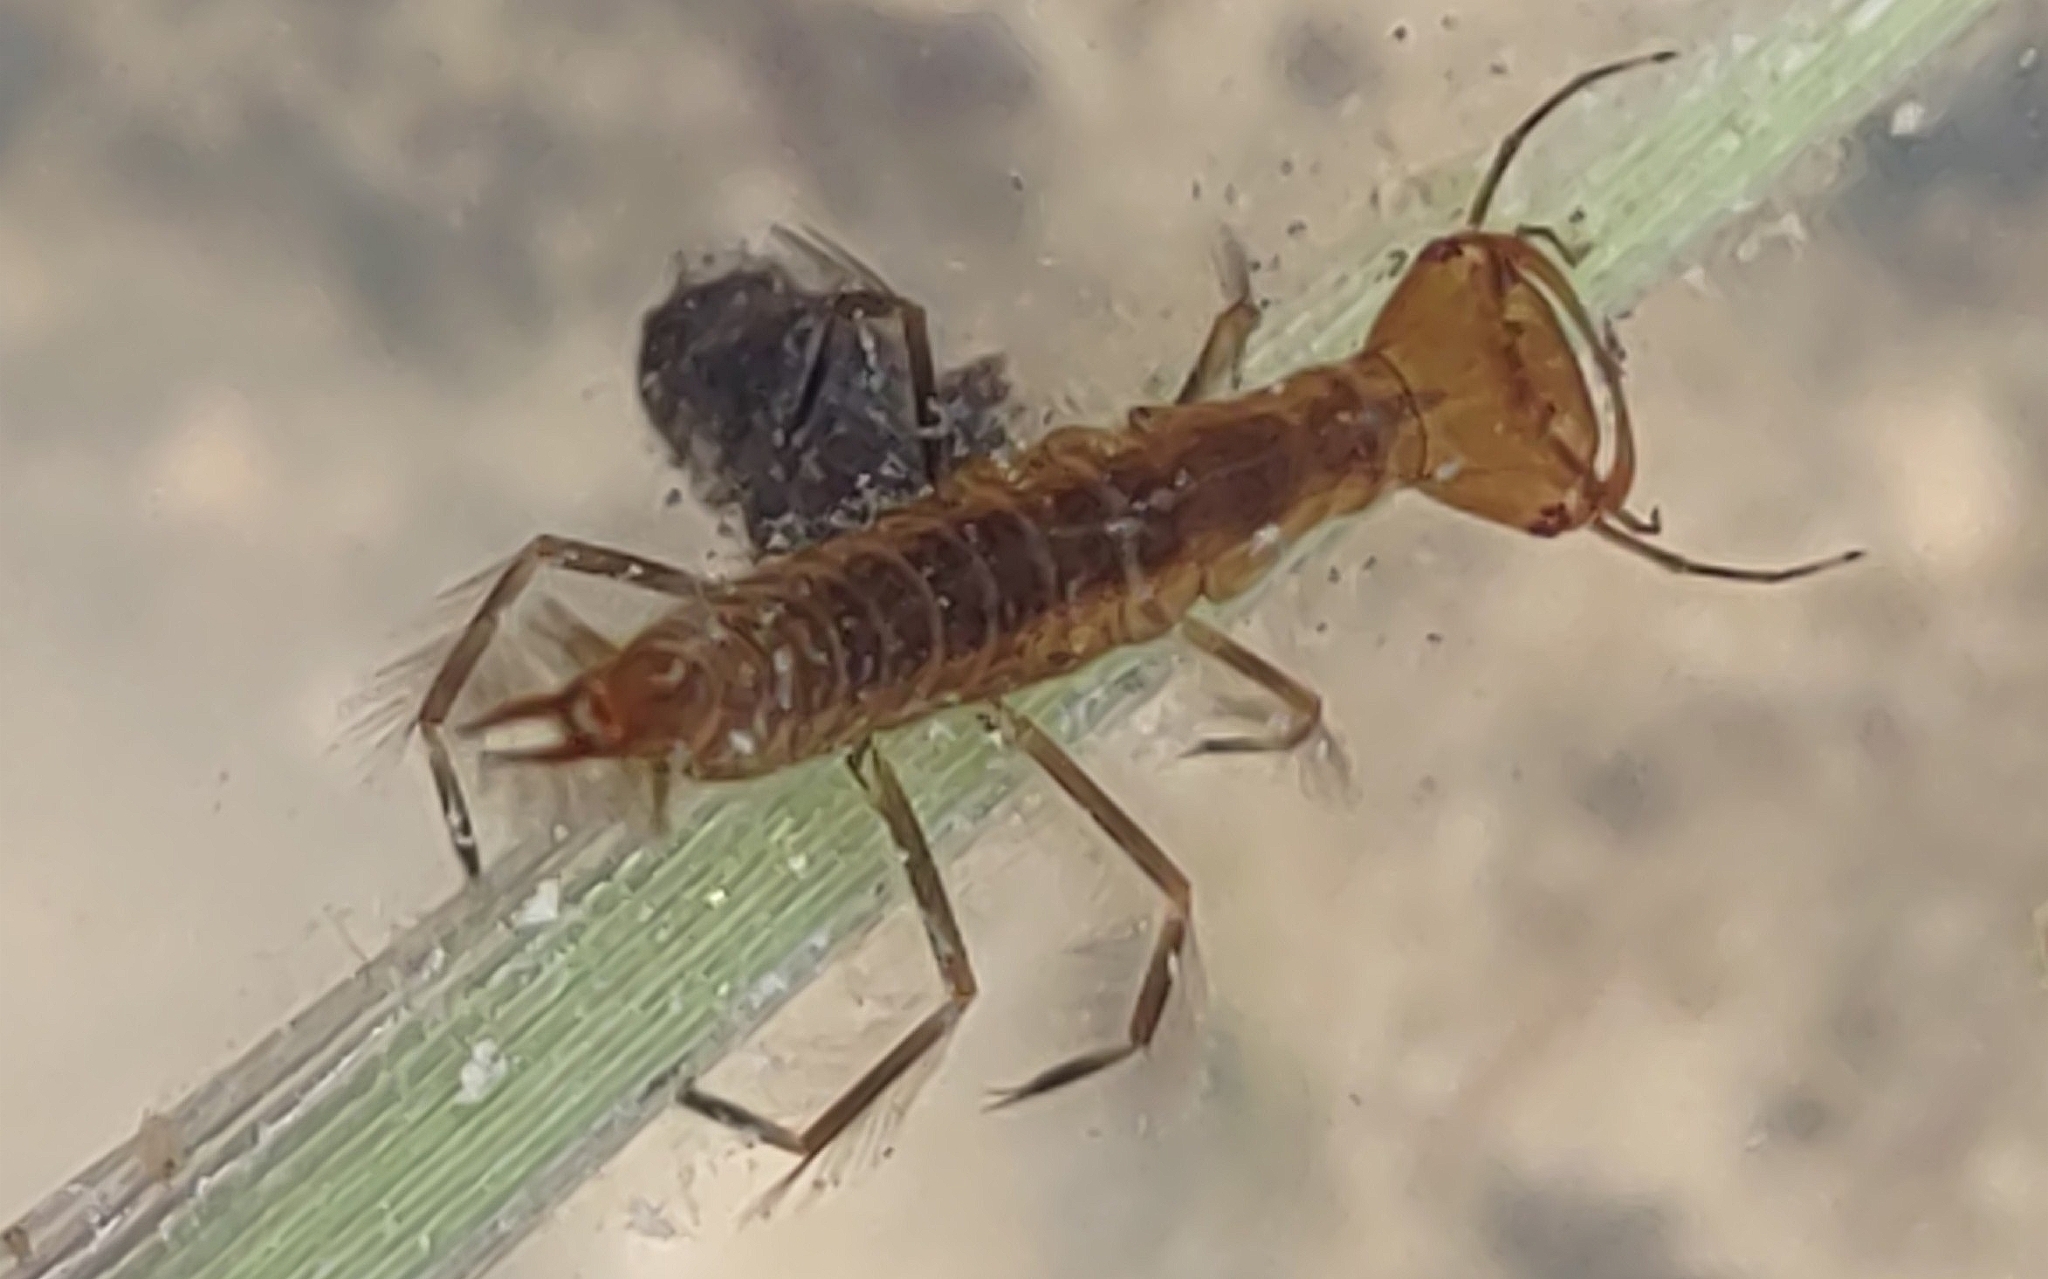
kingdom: Animalia
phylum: Arthropoda
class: Insecta
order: Coleoptera
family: Dytiscidae
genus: Dytiscus
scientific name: Dytiscus
